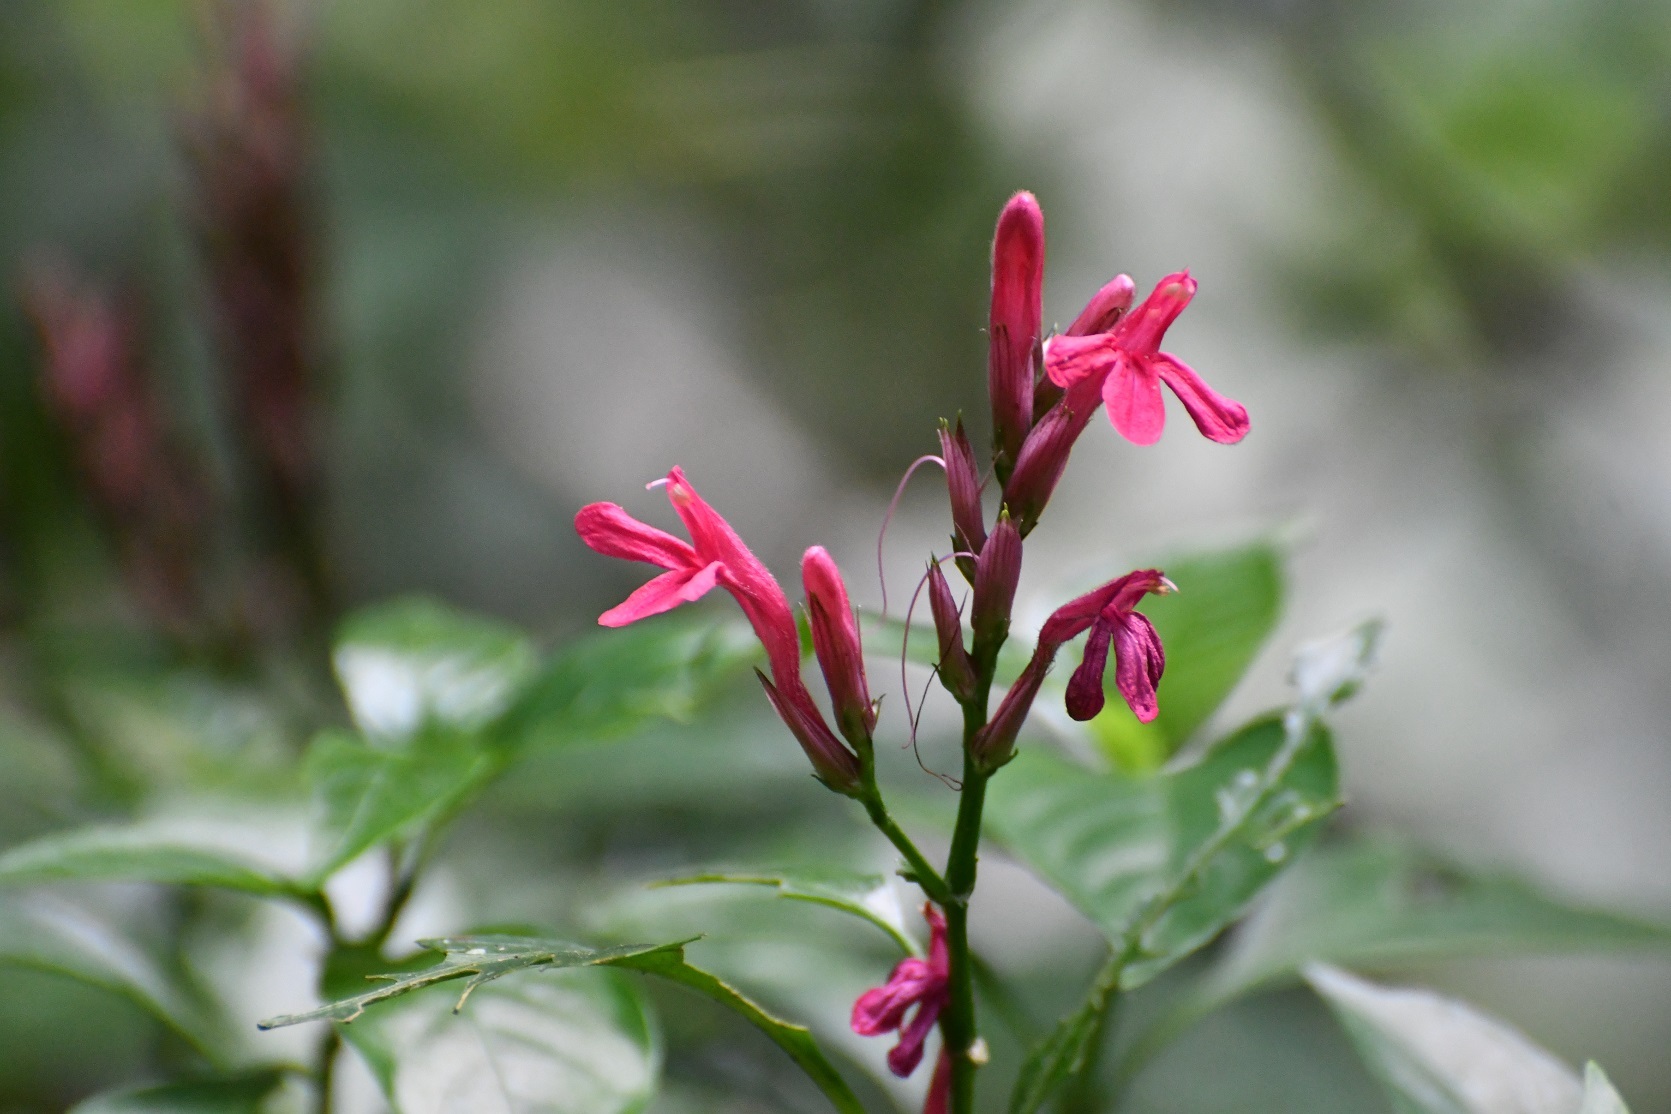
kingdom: Plantae
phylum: Tracheophyta
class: Magnoliopsida
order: Lamiales
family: Acanthaceae
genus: Lepidagathis
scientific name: Lepidagathis chiapensis
